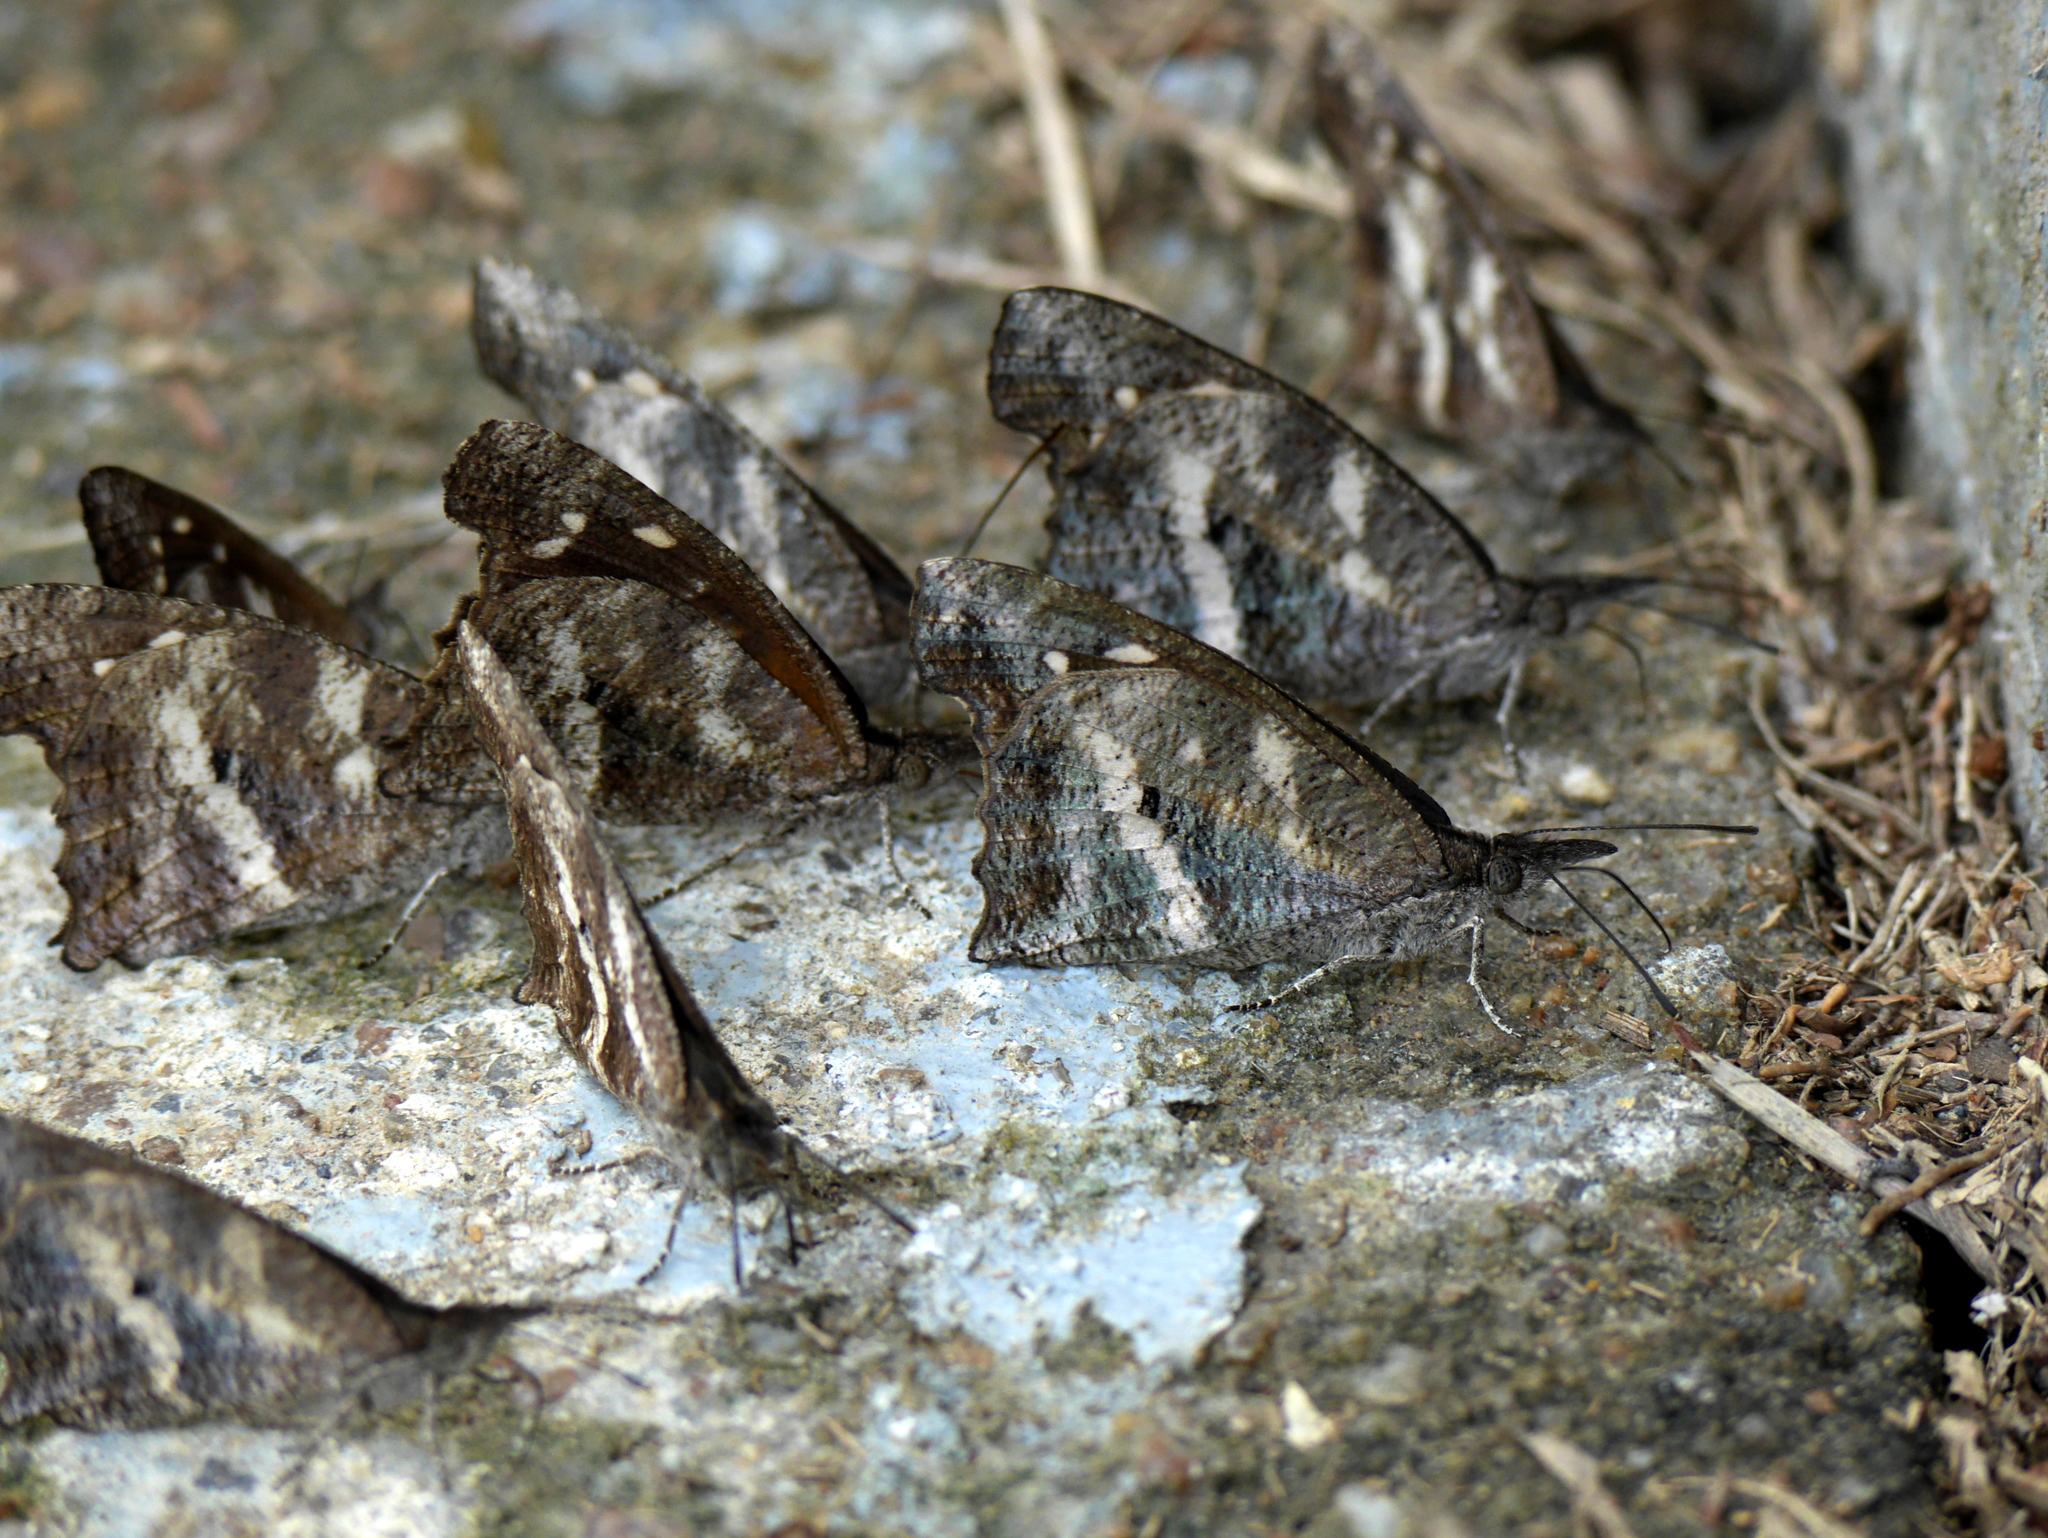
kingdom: Animalia
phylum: Arthropoda
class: Insecta
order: Lepidoptera
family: Nymphalidae
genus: Libythea
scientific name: Libythea labdaca
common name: Northern african snout
